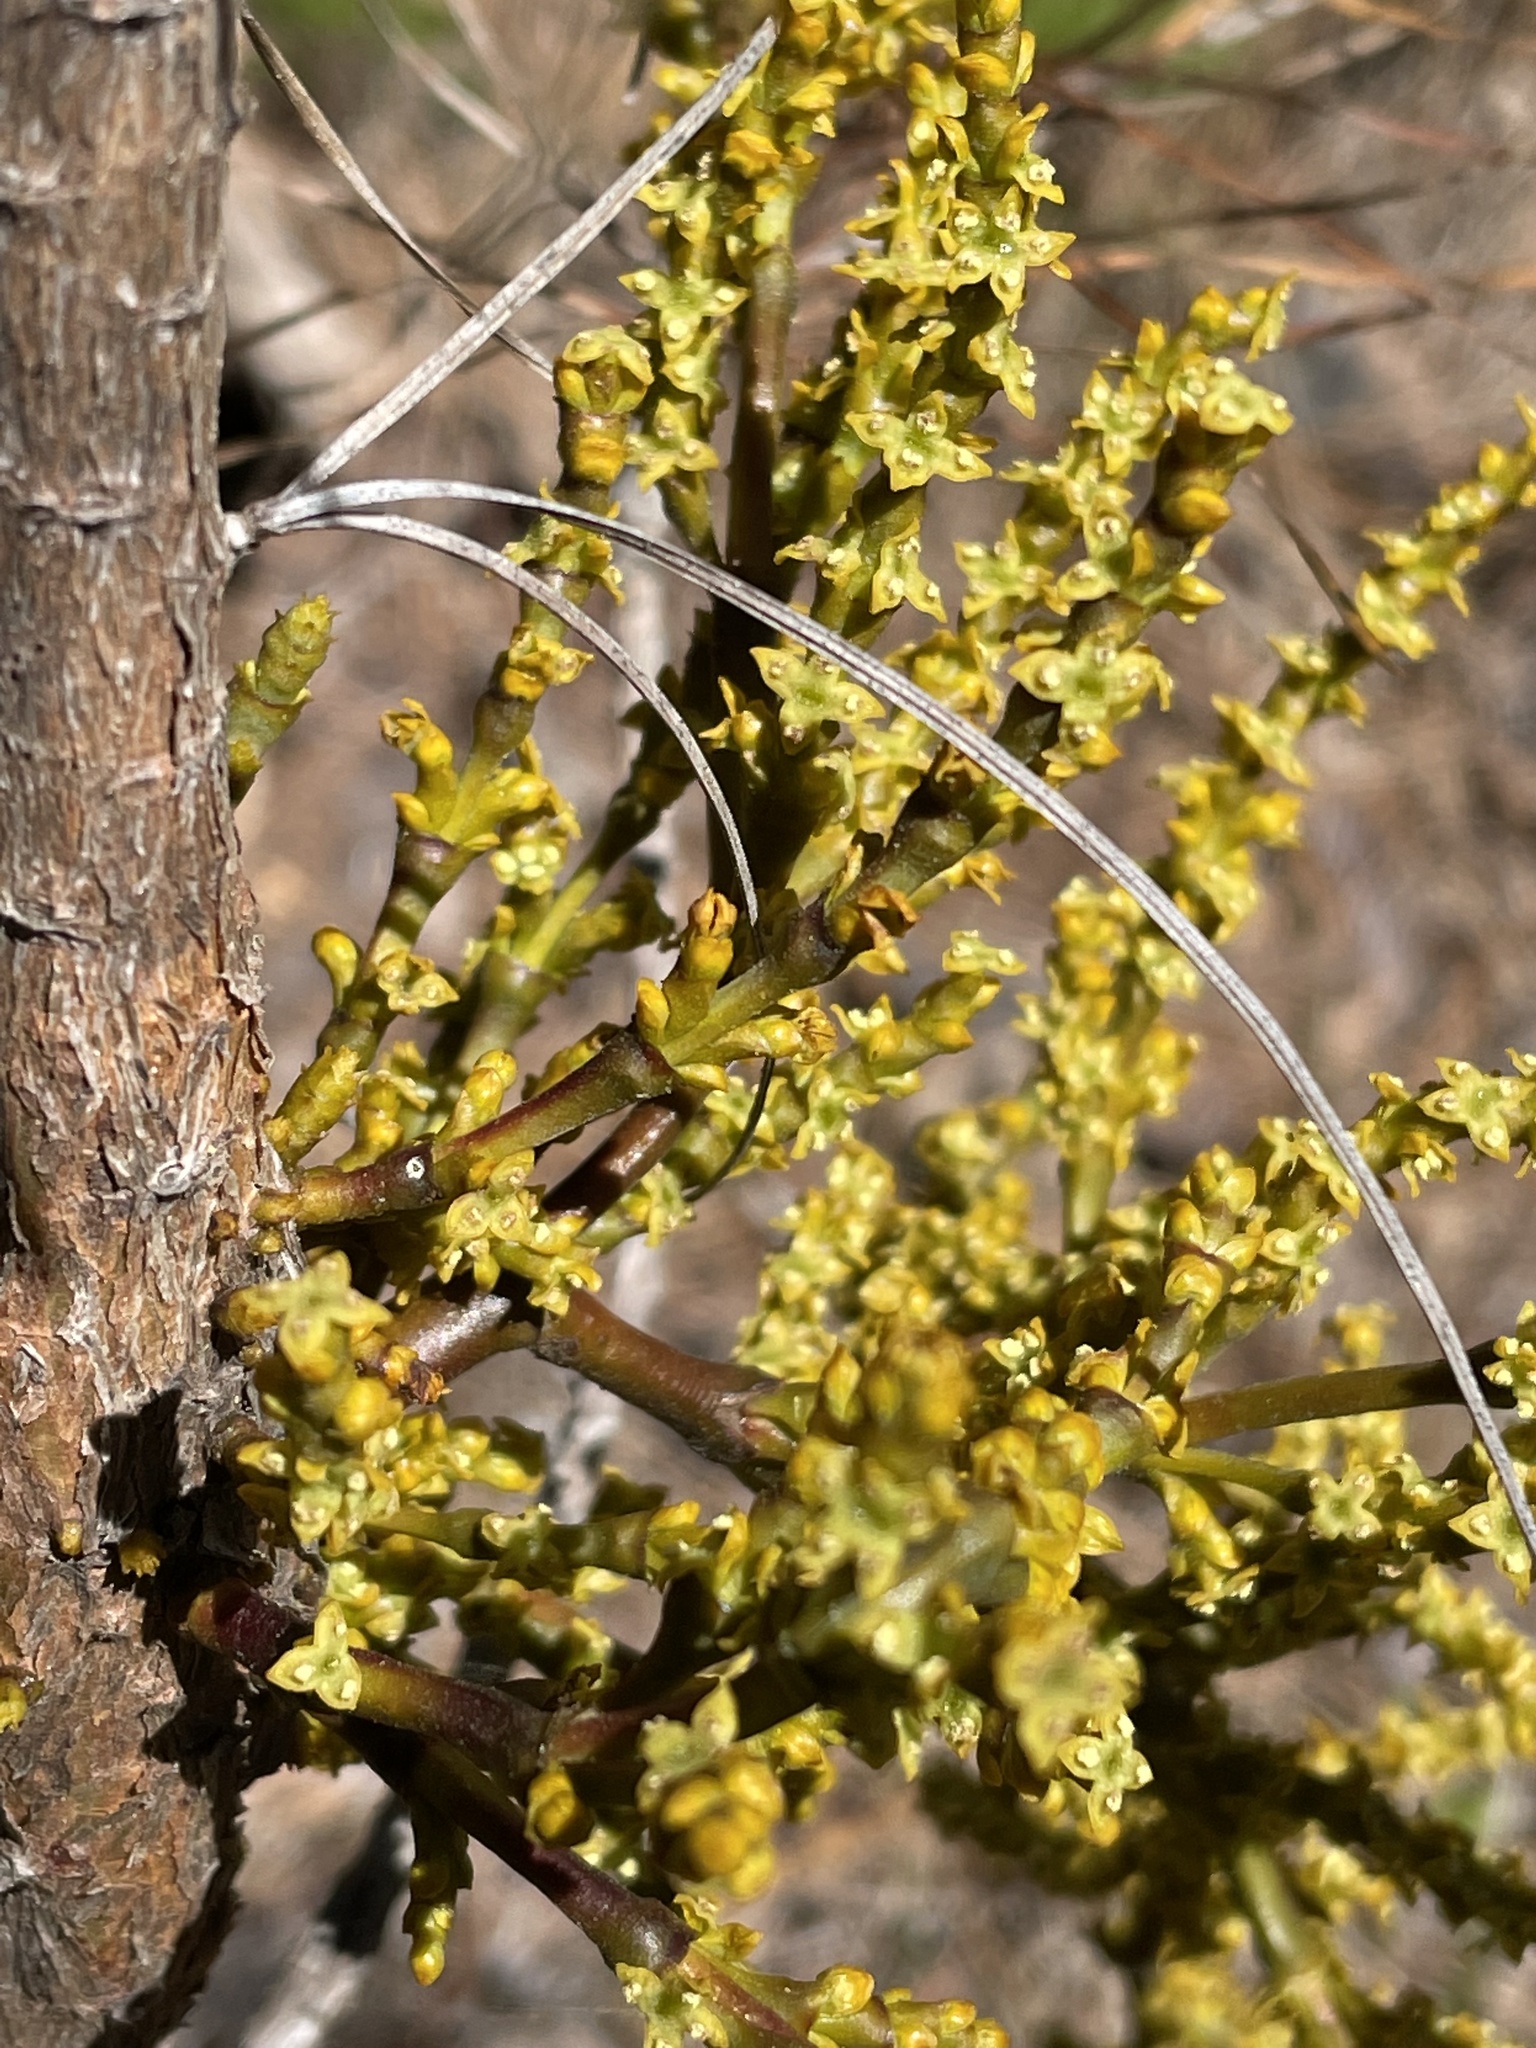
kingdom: Plantae
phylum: Tracheophyta
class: Magnoliopsida
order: Santalales
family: Viscaceae
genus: Arceuthobium
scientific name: Arceuthobium campylopodum
